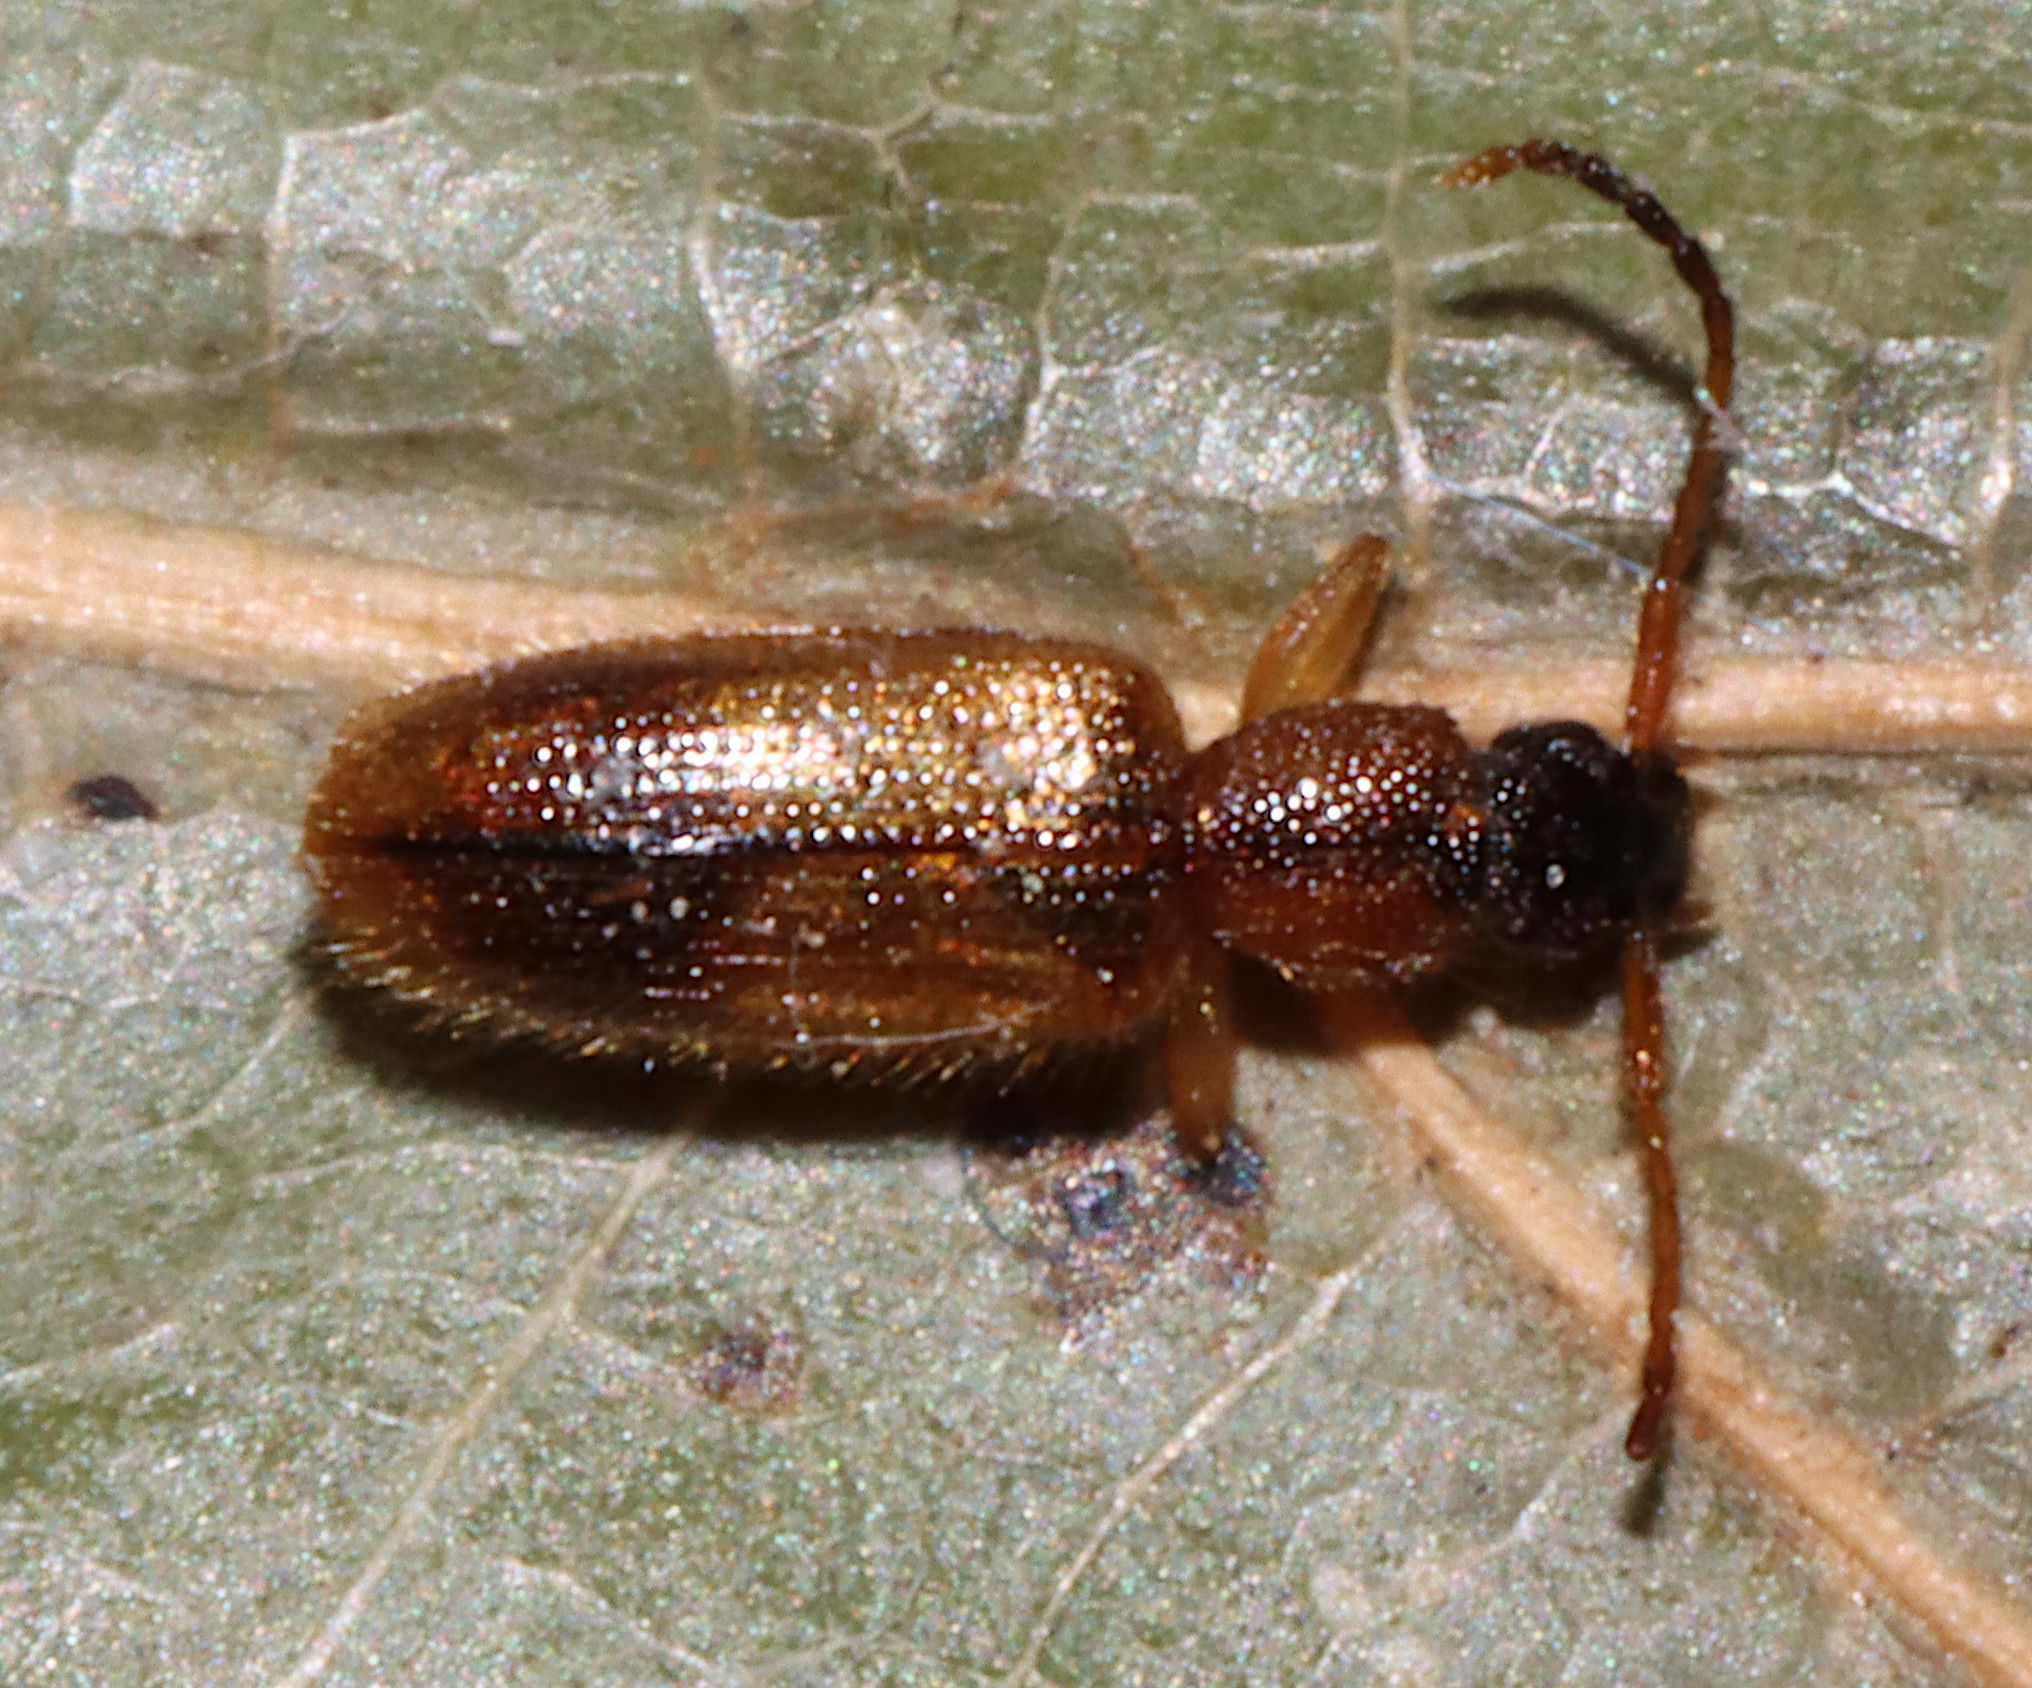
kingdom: Animalia
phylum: Arthropoda
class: Insecta
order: Coleoptera
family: Silvanidae
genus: Telephanus
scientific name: Telephanus velox
